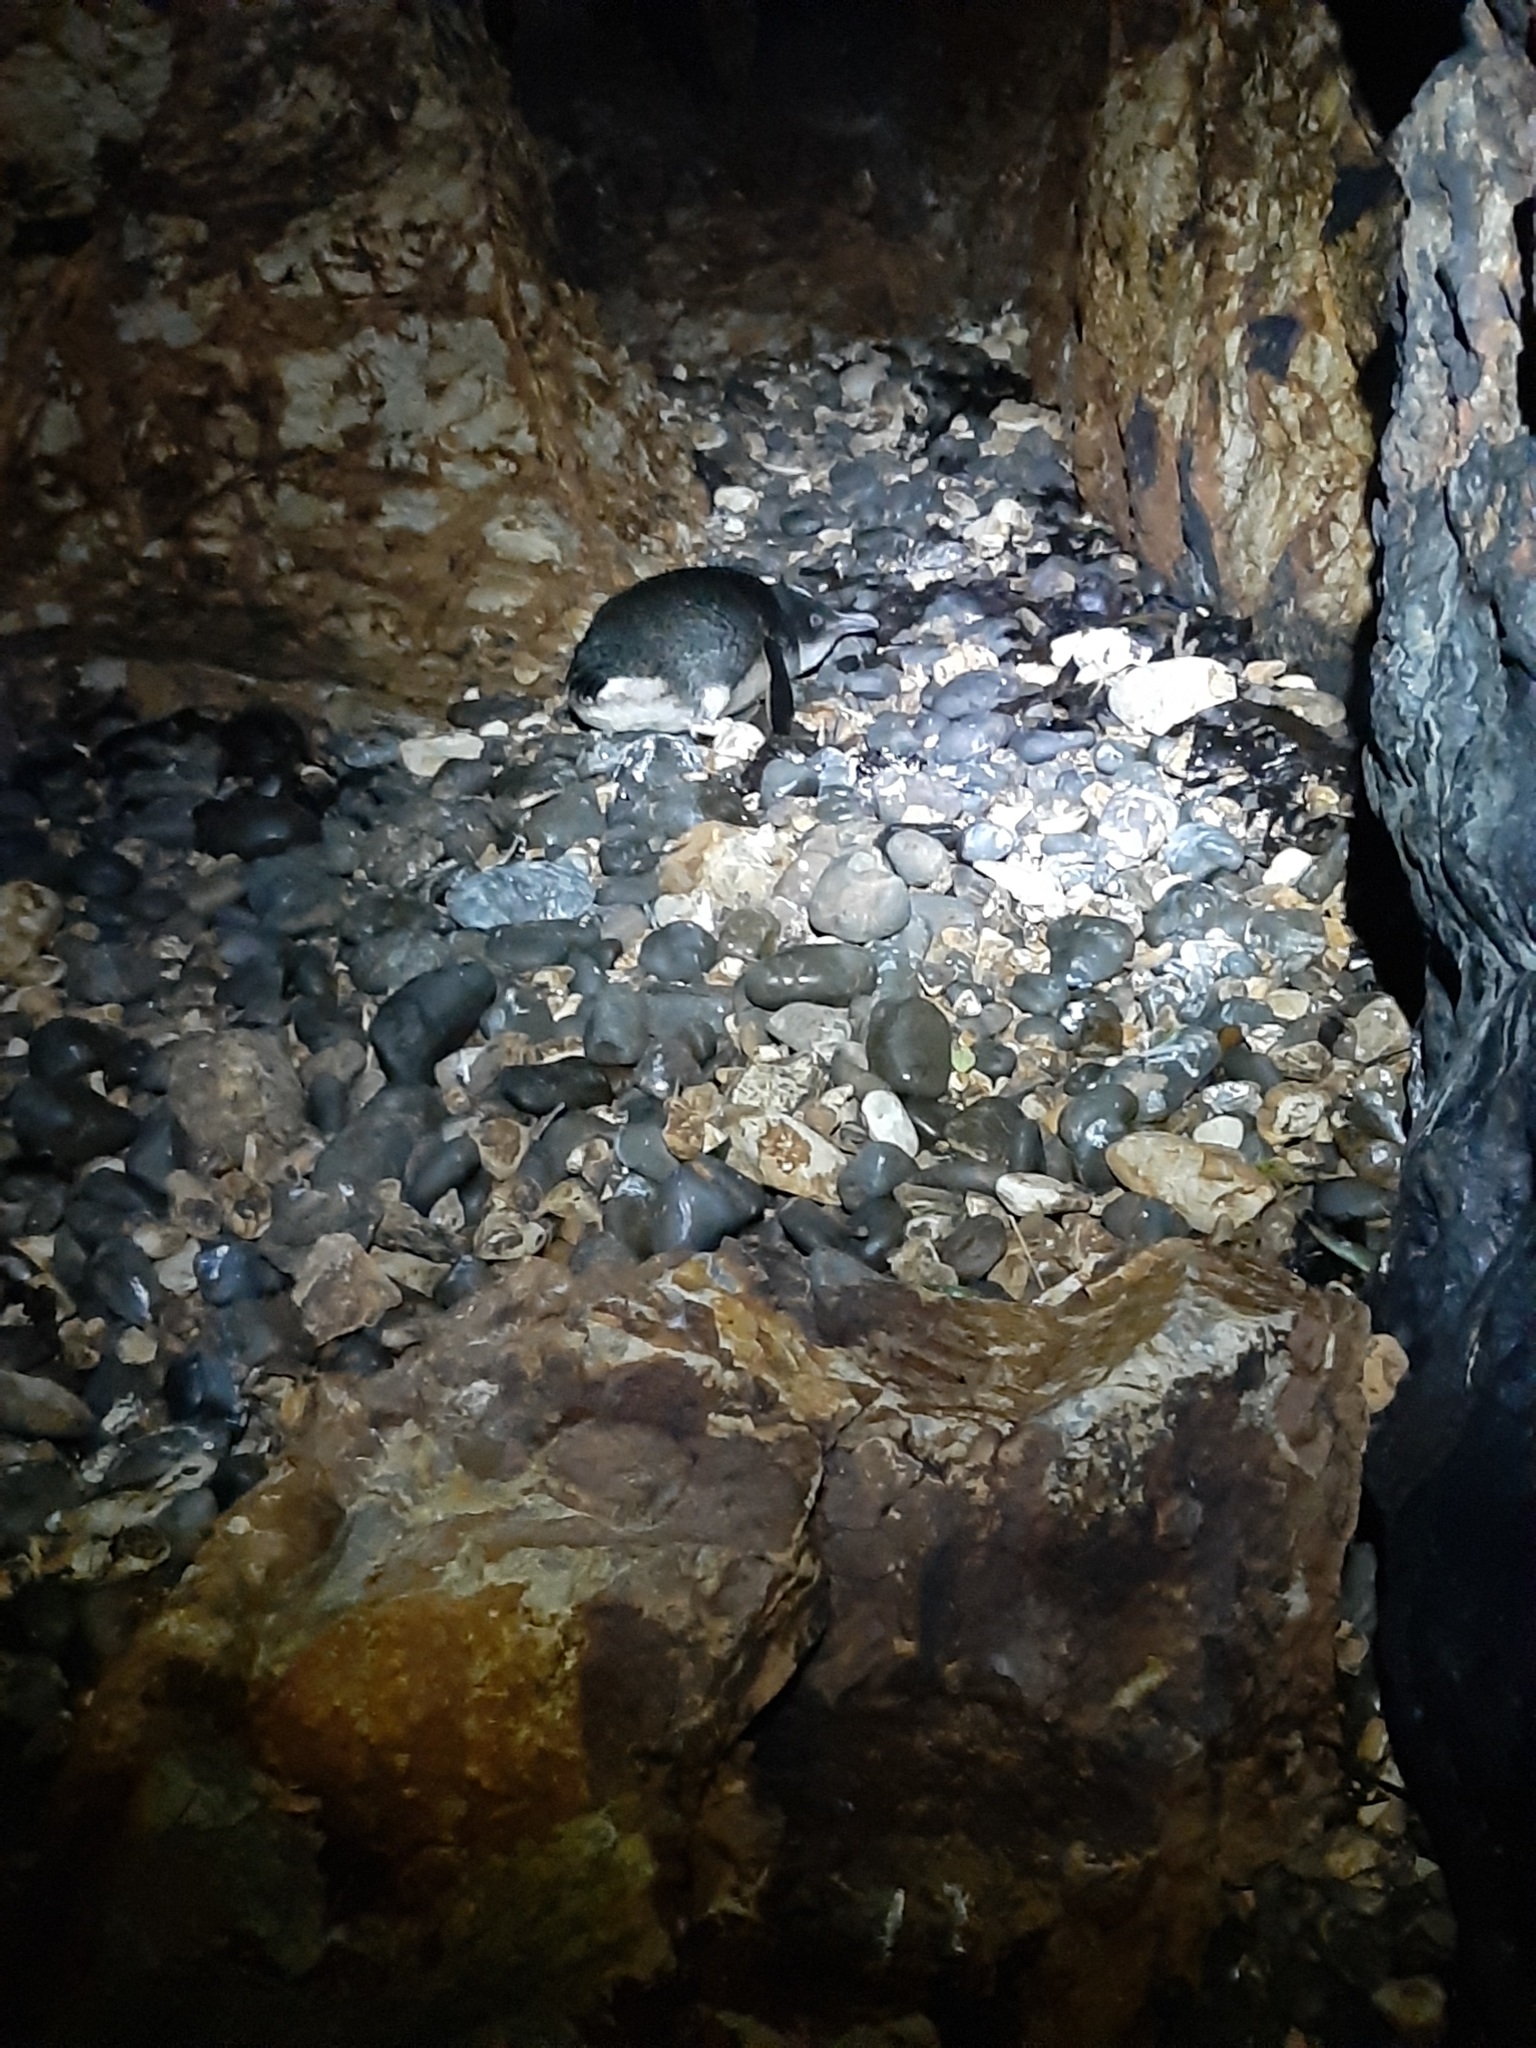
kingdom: Animalia
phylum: Chordata
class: Aves
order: Sphenisciformes
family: Spheniscidae
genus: Eudyptula
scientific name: Eudyptula minor
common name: Little penguin
